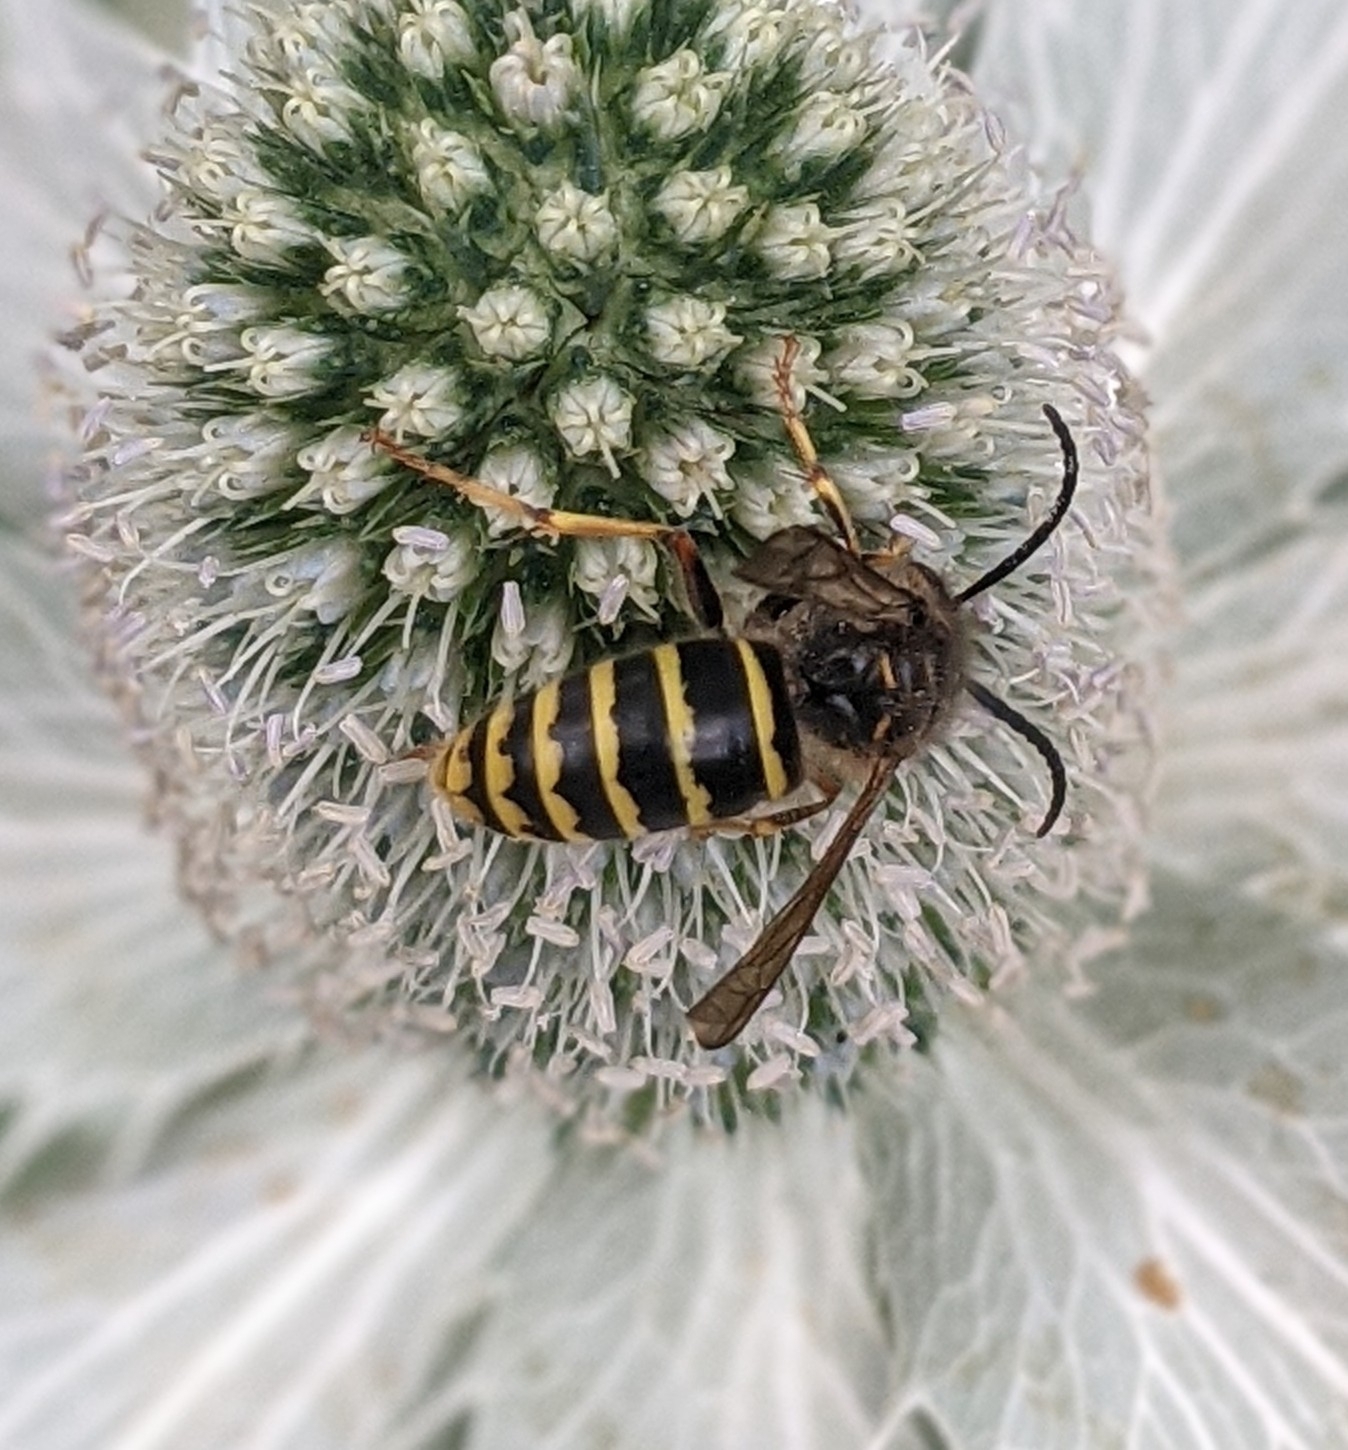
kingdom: Animalia
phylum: Arthropoda
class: Insecta
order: Hymenoptera
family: Vespidae
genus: Dolichovespula
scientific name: Dolichovespula media
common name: Median wasp
